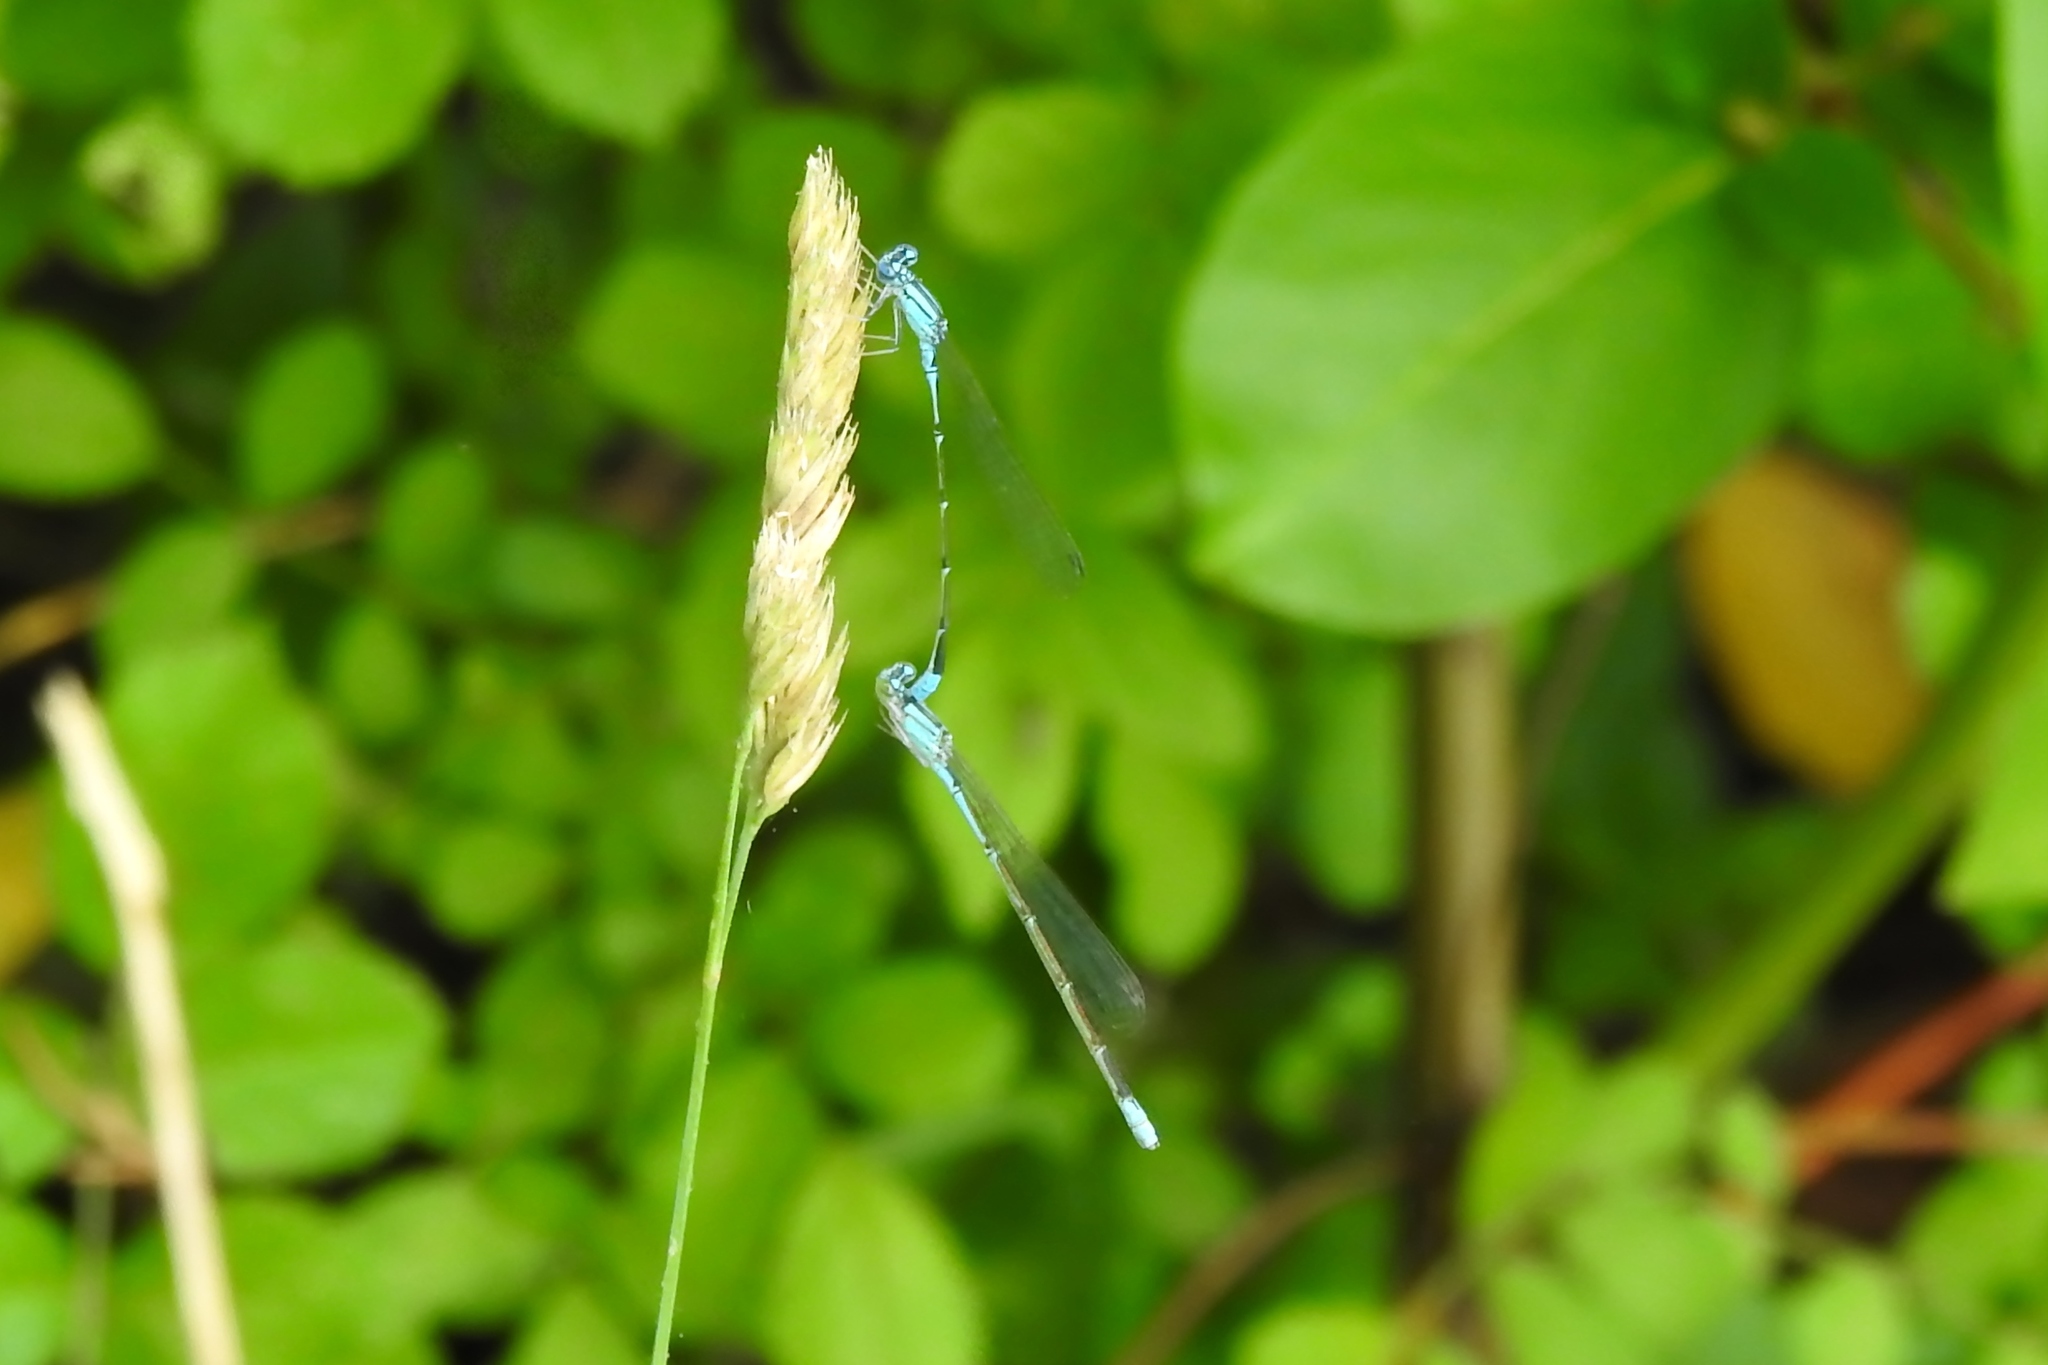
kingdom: Animalia
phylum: Arthropoda
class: Insecta
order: Odonata
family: Coenagrionidae
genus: Enallagma
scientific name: Enallagma traviatum
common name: Slender bluet
